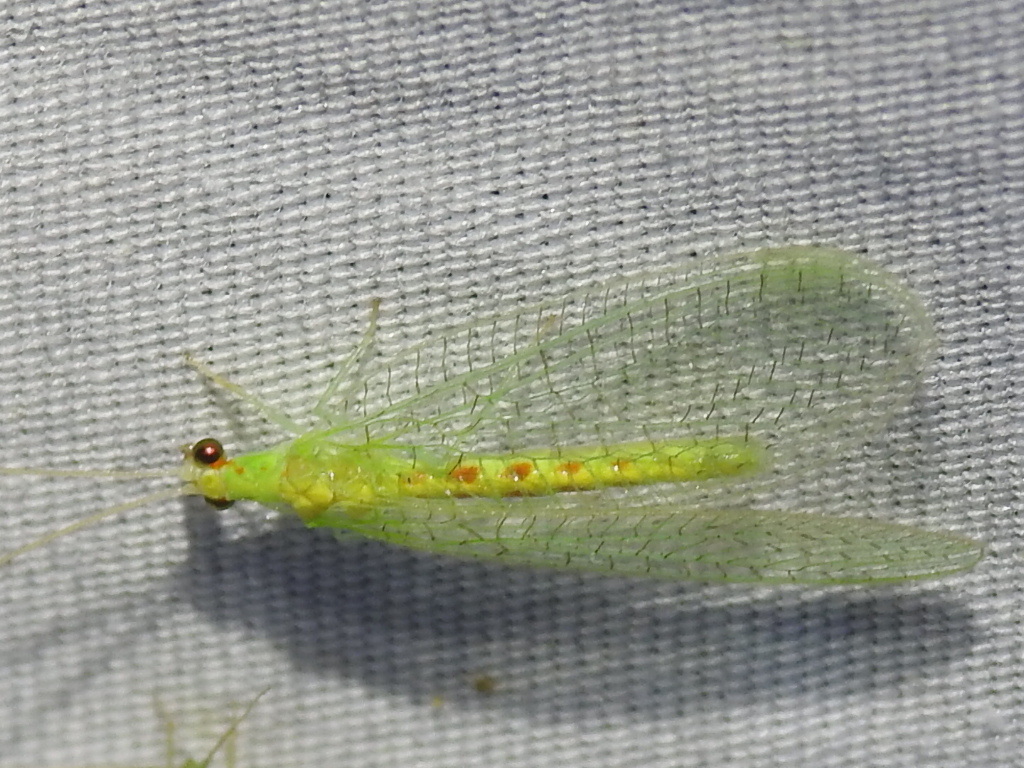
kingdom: Animalia
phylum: Arthropoda
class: Insecta
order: Neuroptera
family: Chrysopidae
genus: Chrysopa
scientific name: Chrysopa quadripunctata
